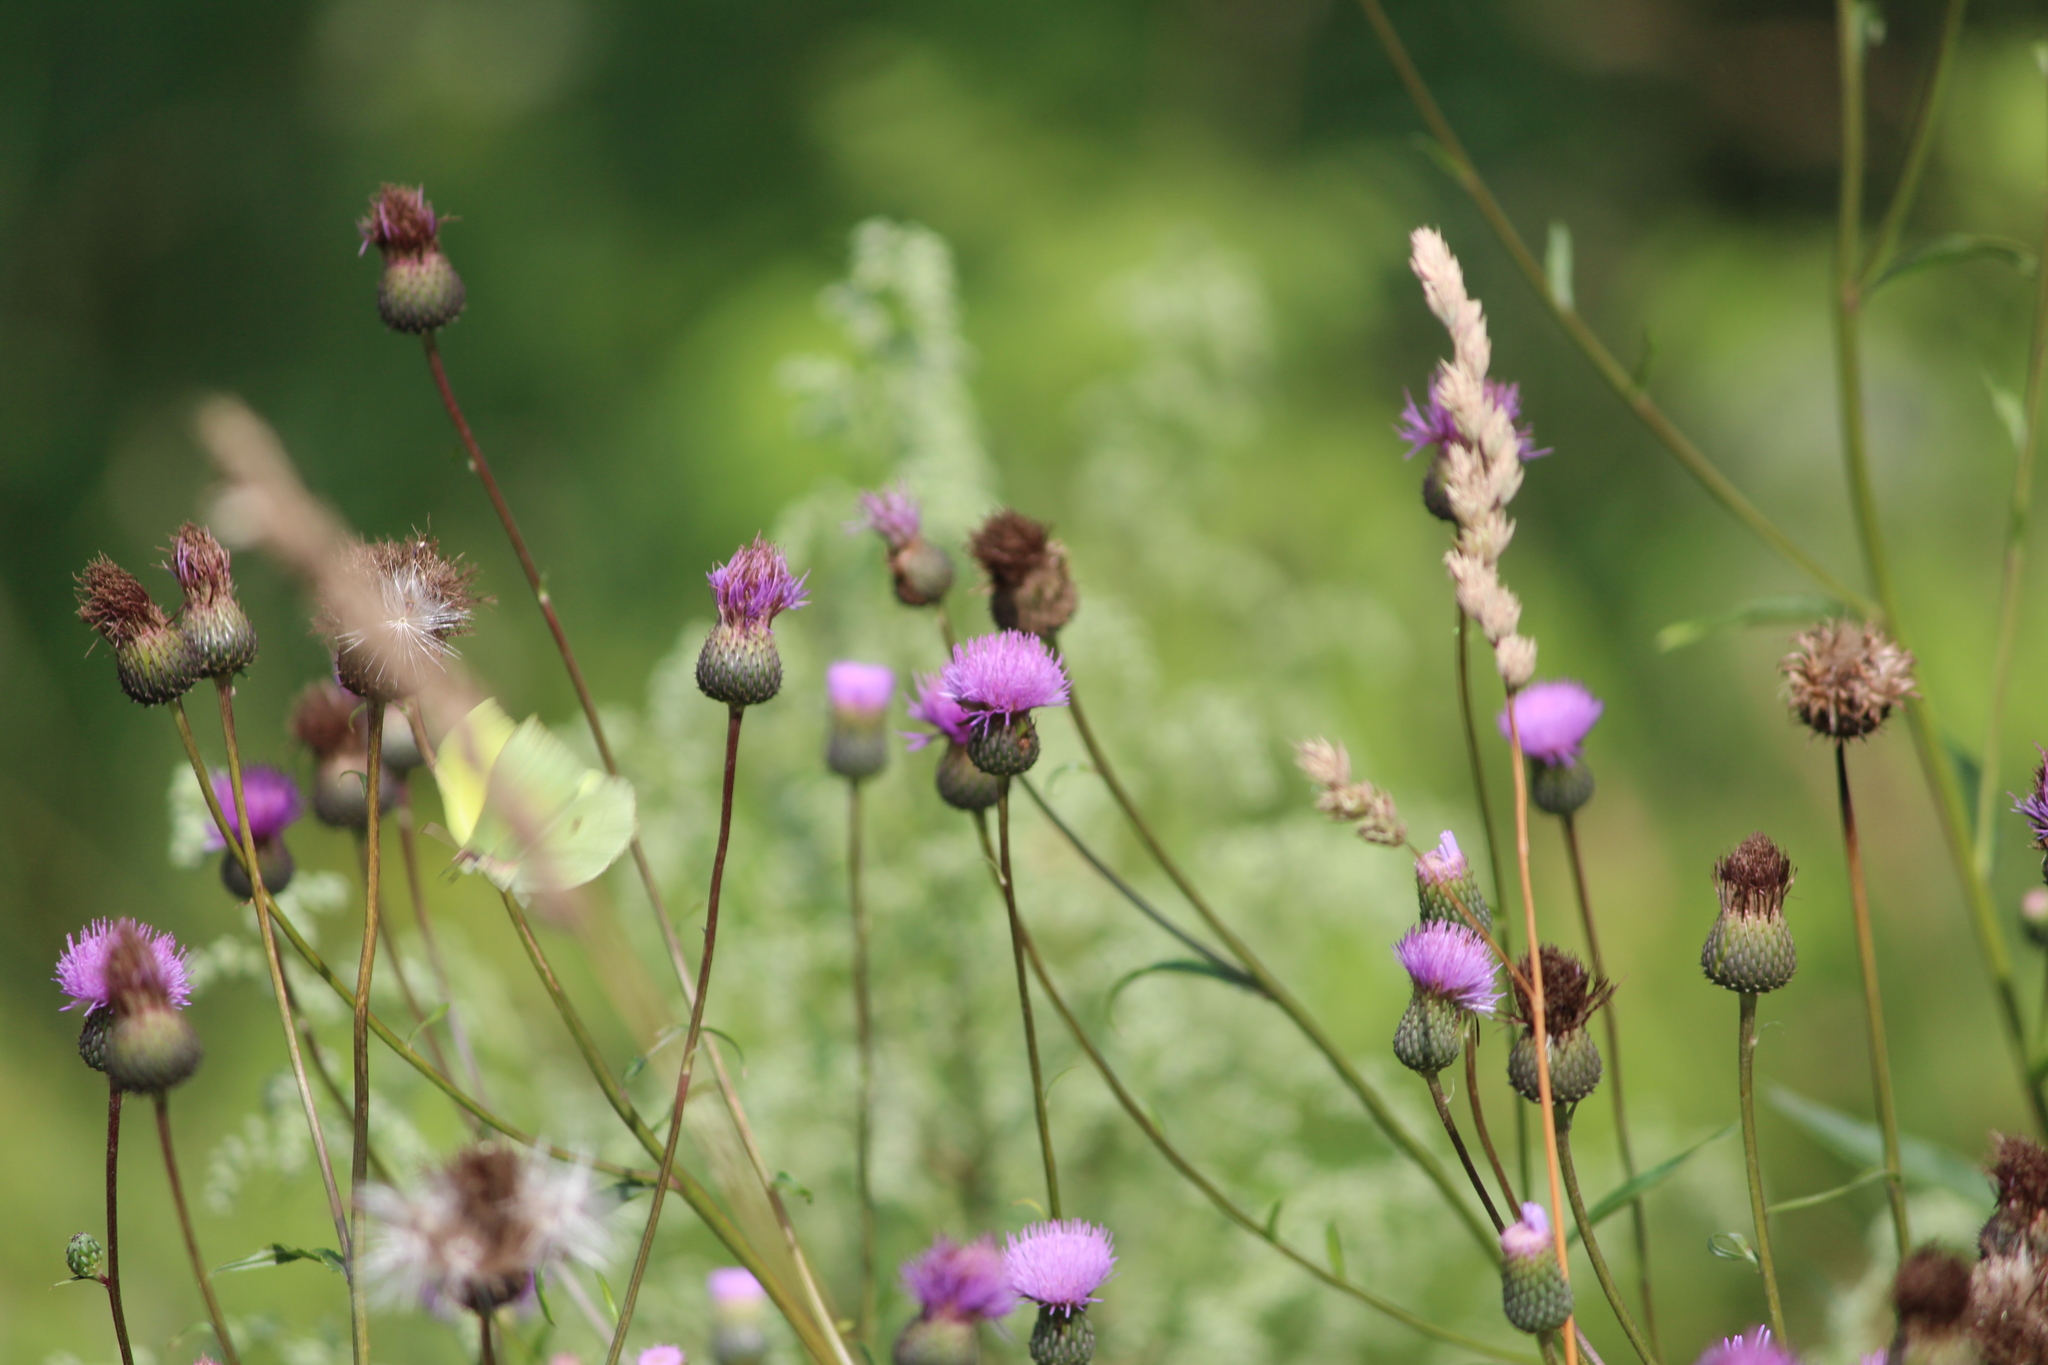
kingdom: Animalia
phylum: Arthropoda
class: Insecta
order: Lepidoptera
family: Pieridae
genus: Gonepteryx
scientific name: Gonepteryx rhamni
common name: Brimstone
